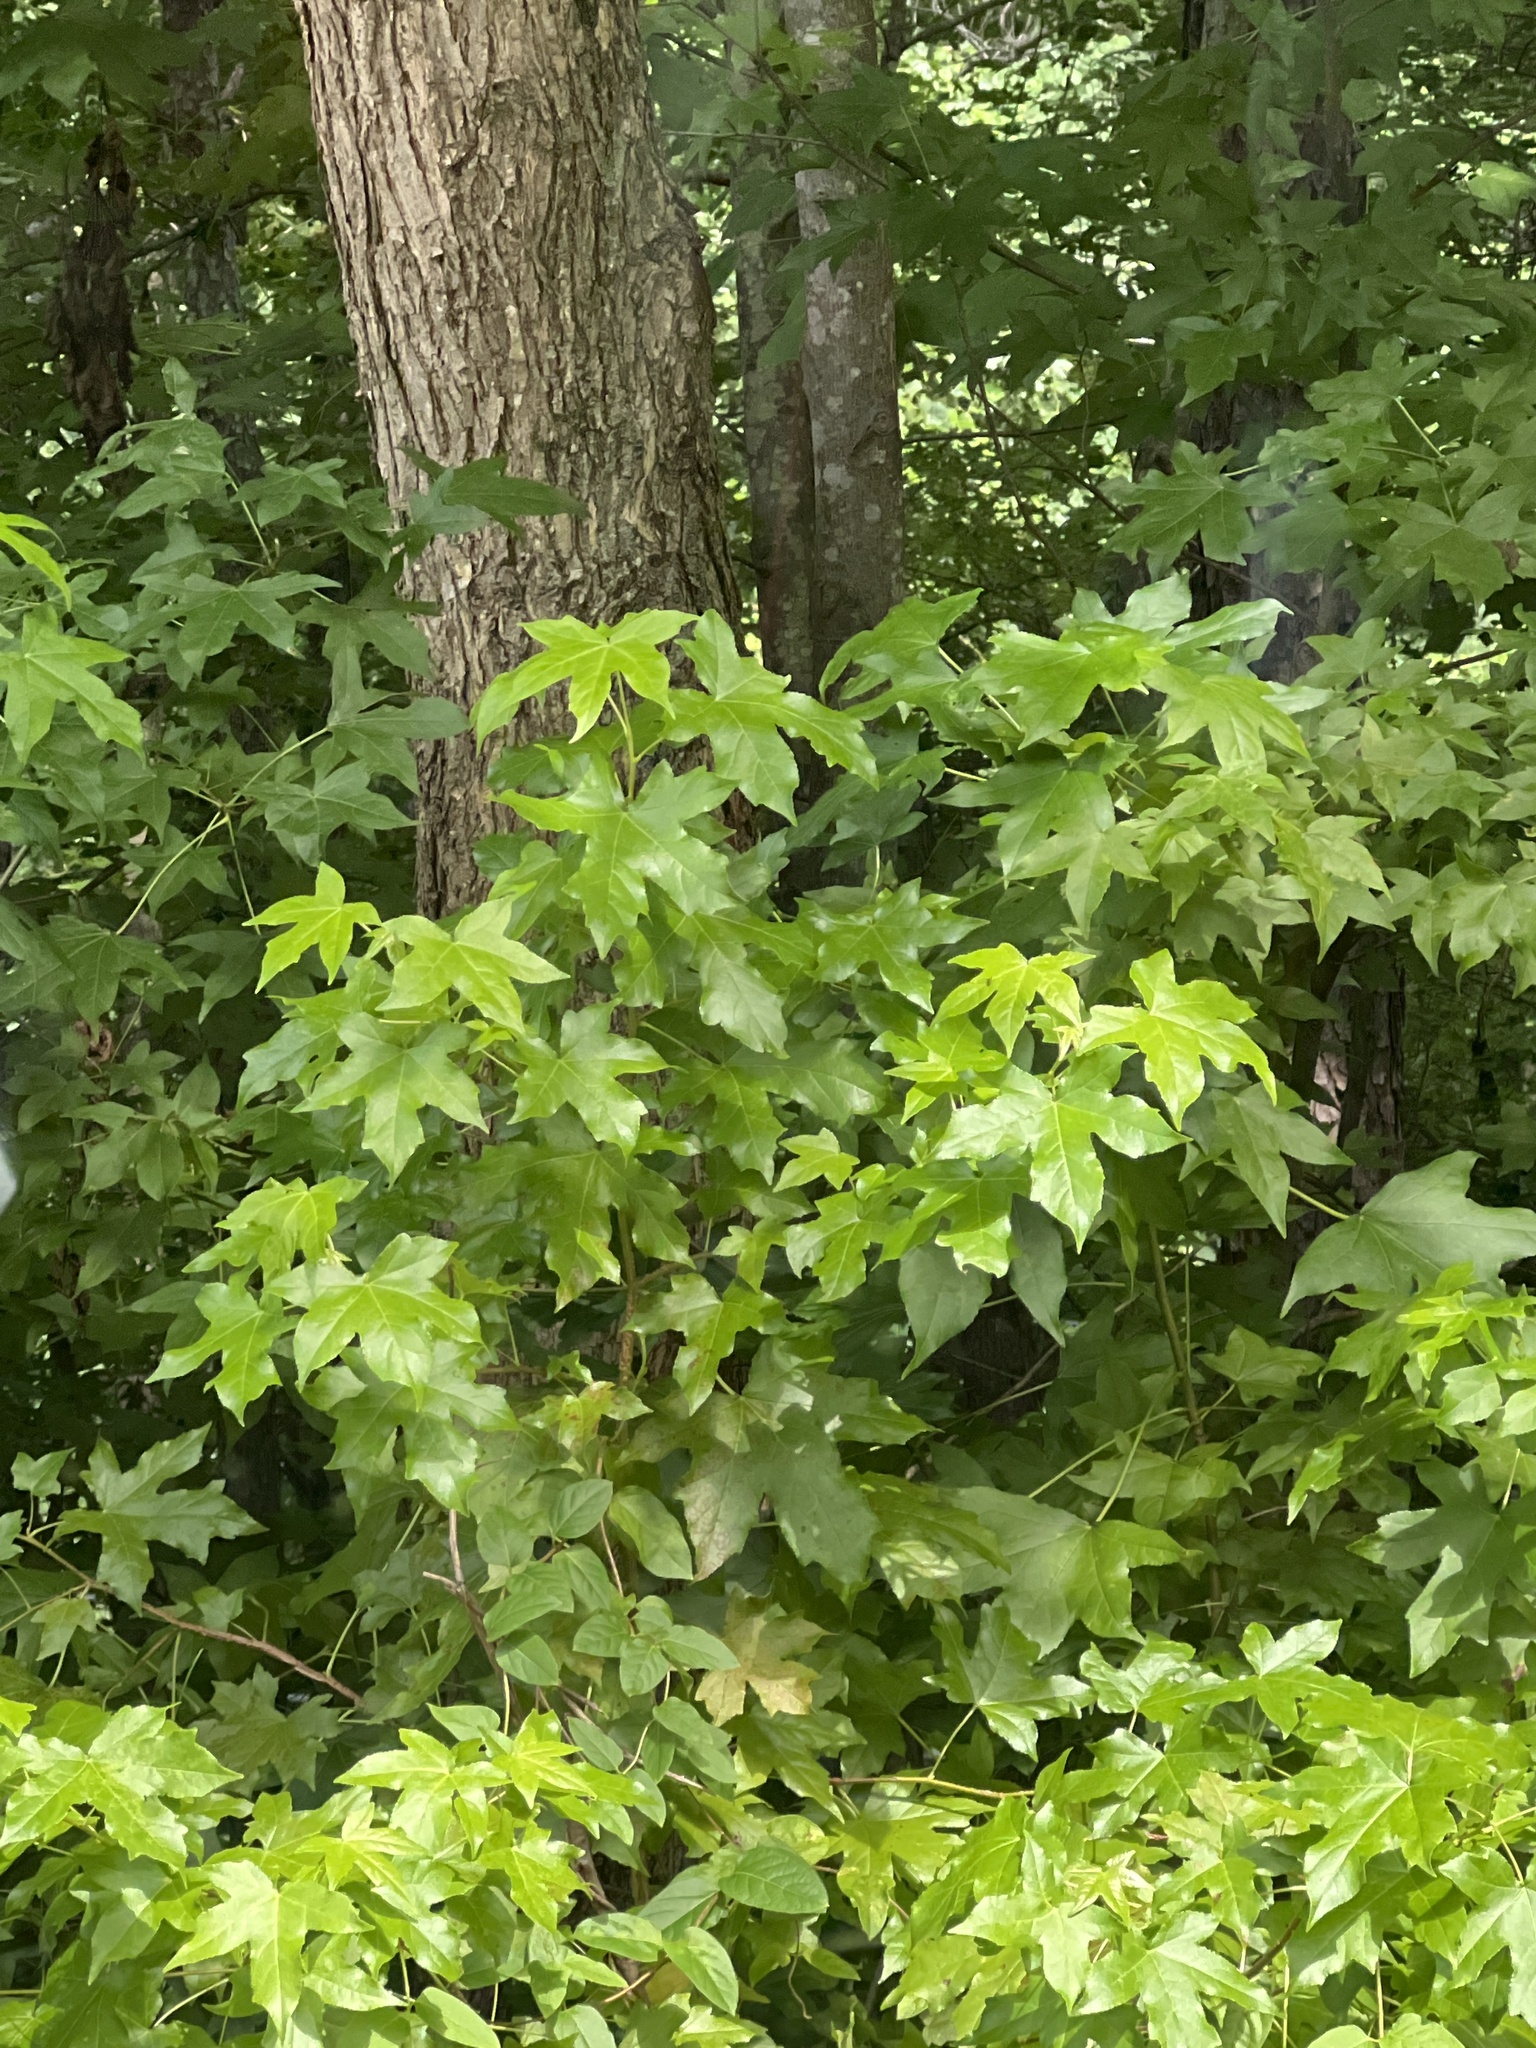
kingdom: Plantae
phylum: Tracheophyta
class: Magnoliopsida
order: Saxifragales
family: Altingiaceae
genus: Liquidambar
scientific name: Liquidambar styraciflua
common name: Sweet gum
